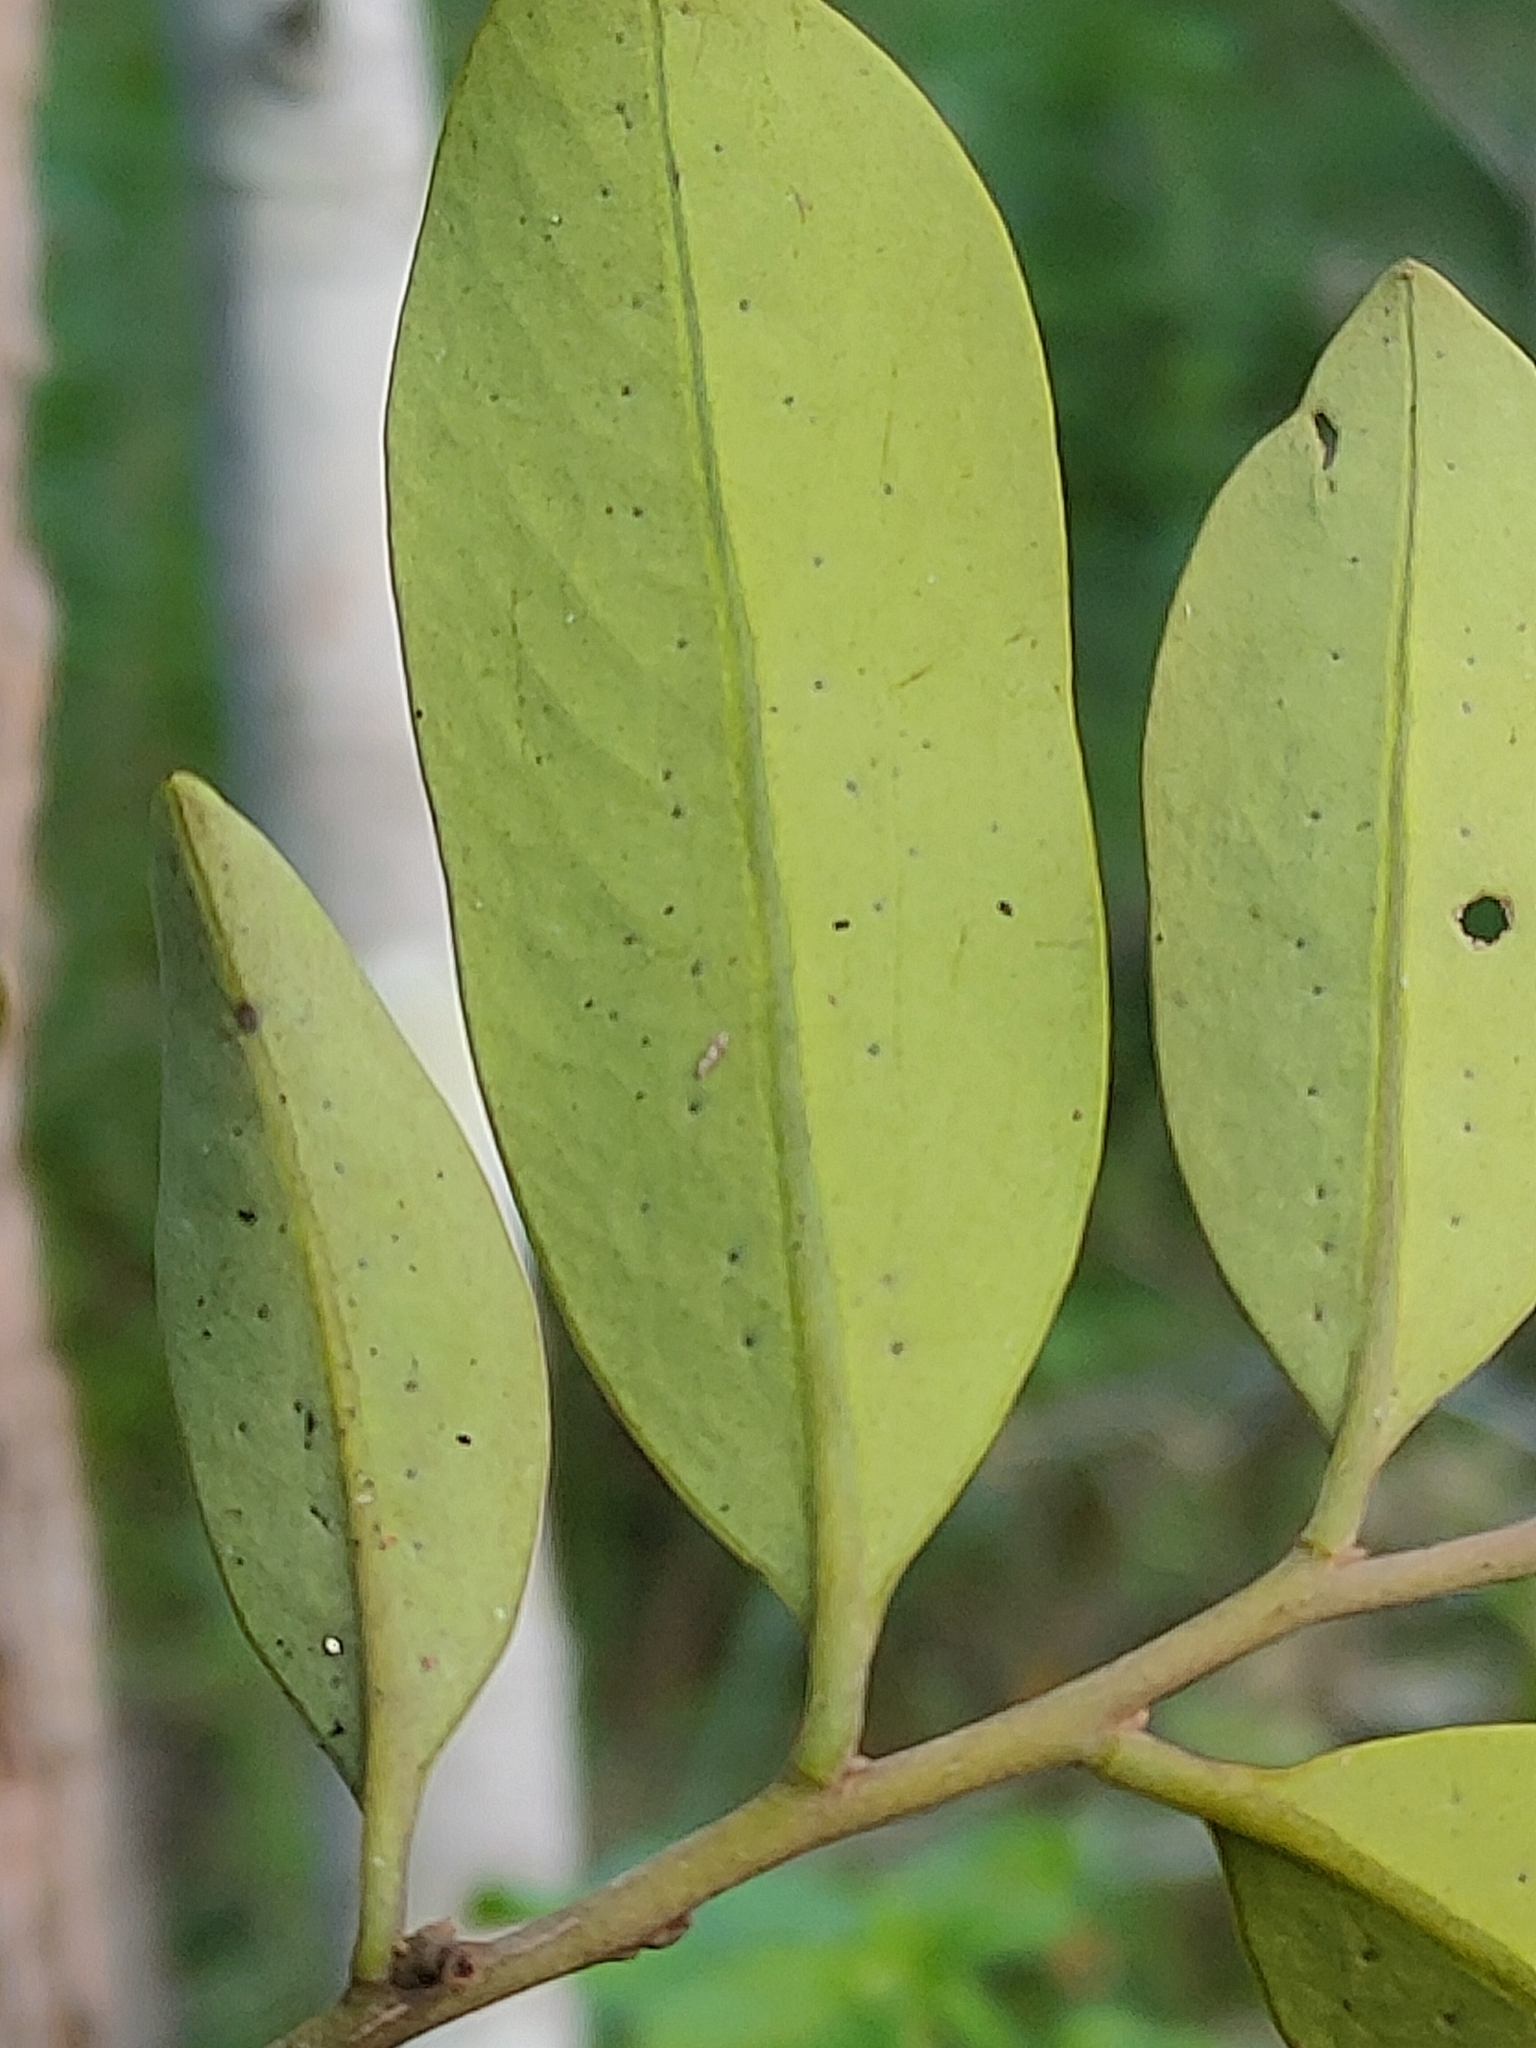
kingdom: Plantae
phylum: Tracheophyta
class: Magnoliopsida
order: Ericales
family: Ebenaceae
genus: Diospyros
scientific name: Diospyros australis
